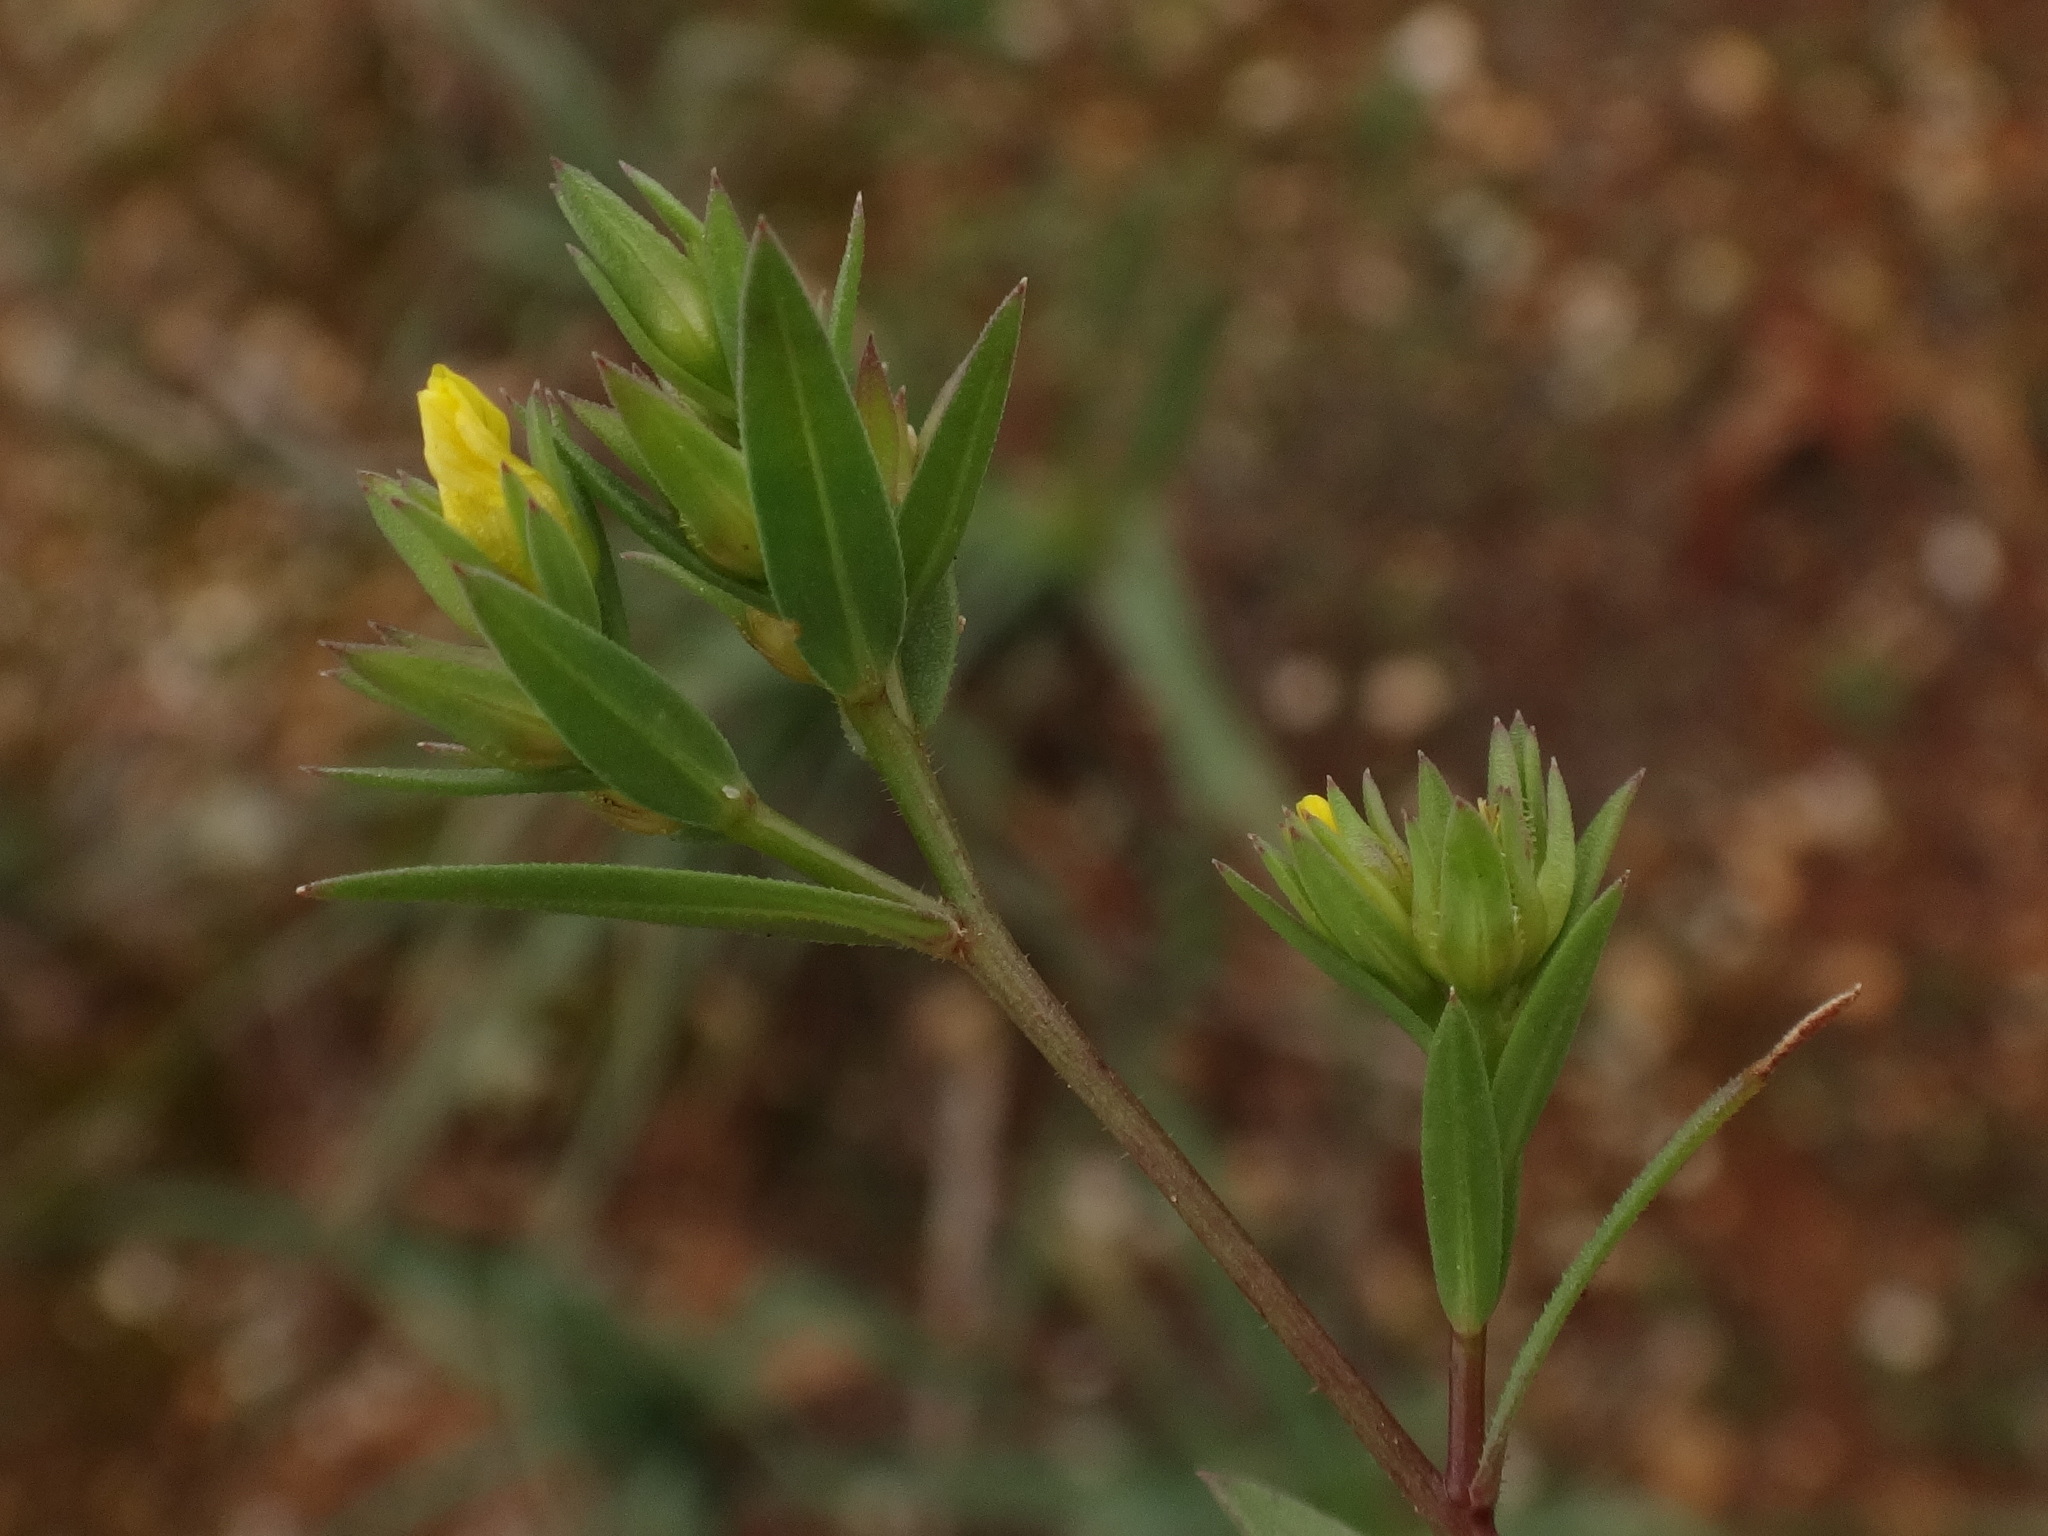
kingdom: Plantae
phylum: Tracheophyta
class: Magnoliopsida
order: Malpighiales
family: Linaceae
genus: Linum
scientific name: Linum strictum
